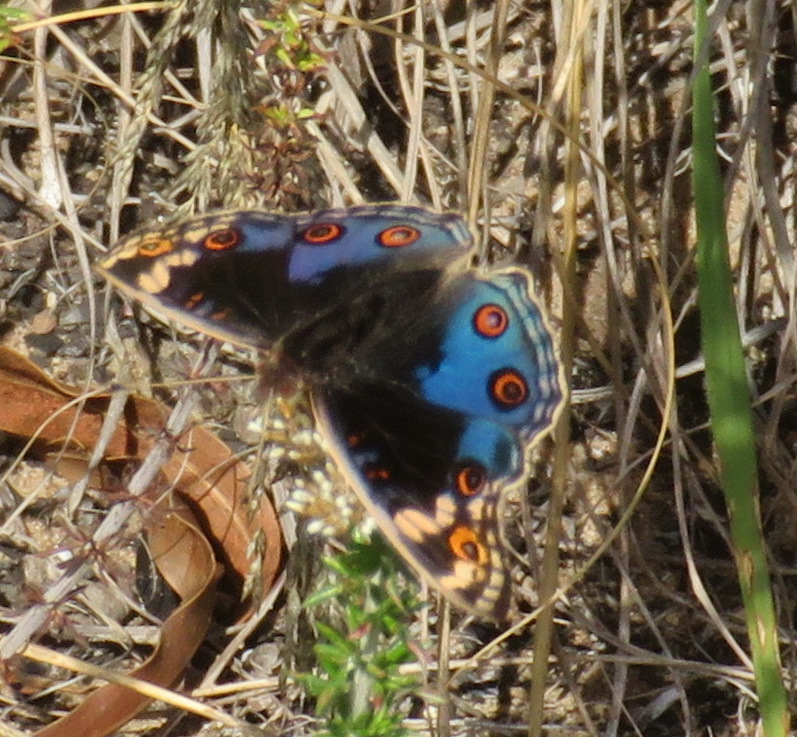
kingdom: Animalia
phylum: Arthropoda
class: Insecta
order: Lepidoptera
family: Nymphalidae
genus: Junonia
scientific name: Junonia orithya
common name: Blue pansy
